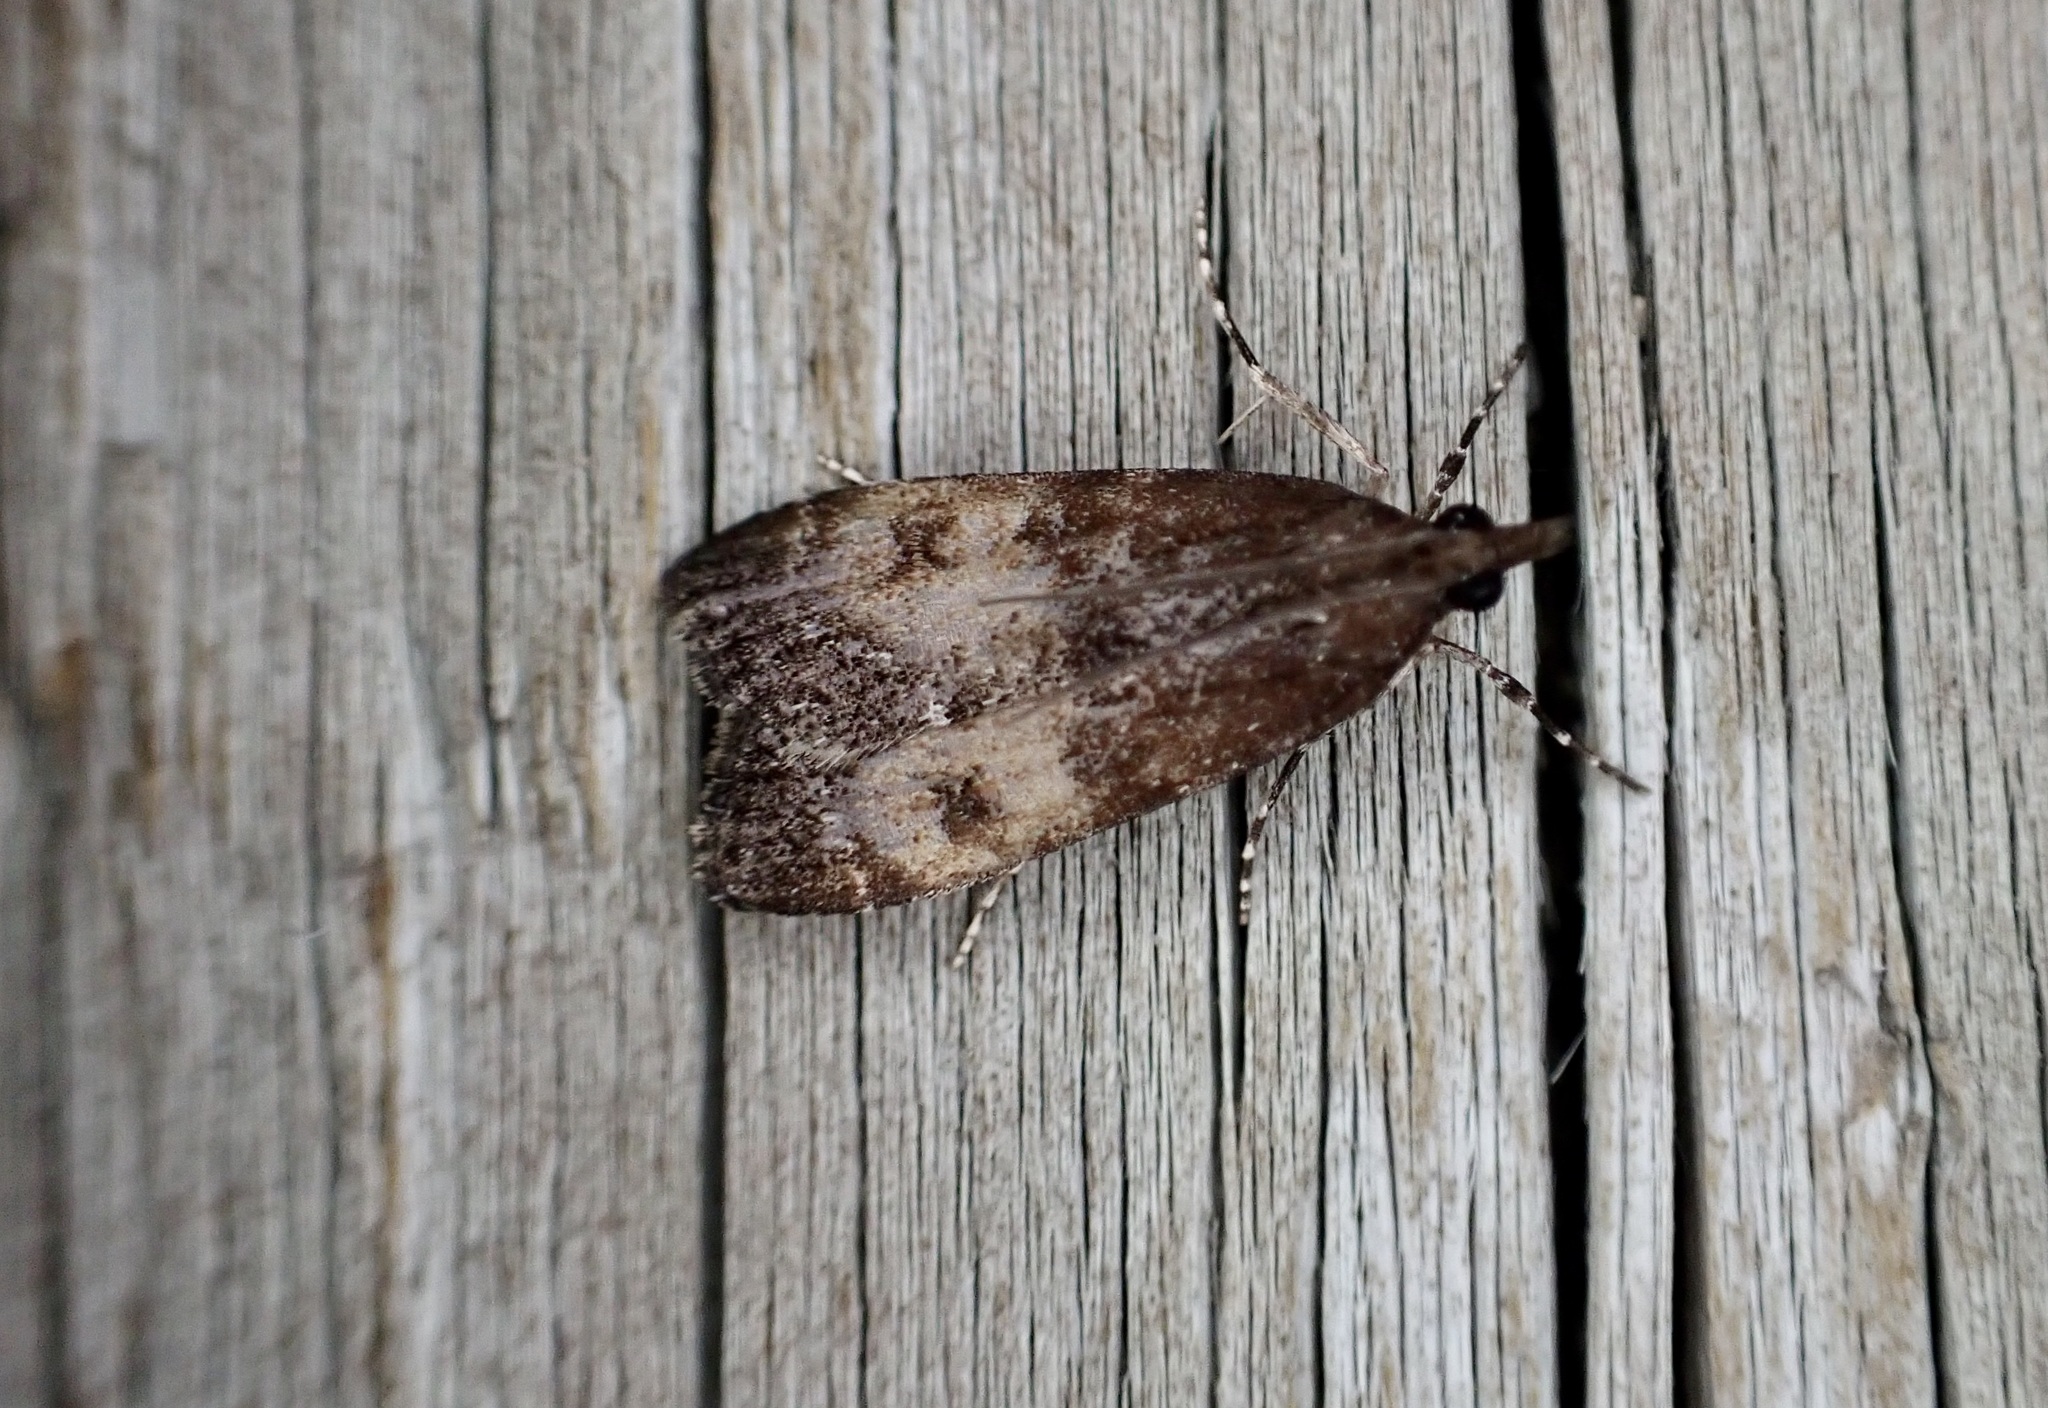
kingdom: Animalia
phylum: Arthropoda
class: Insecta
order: Lepidoptera
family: Crambidae
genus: Eudonia
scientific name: Eudonia asterisca
